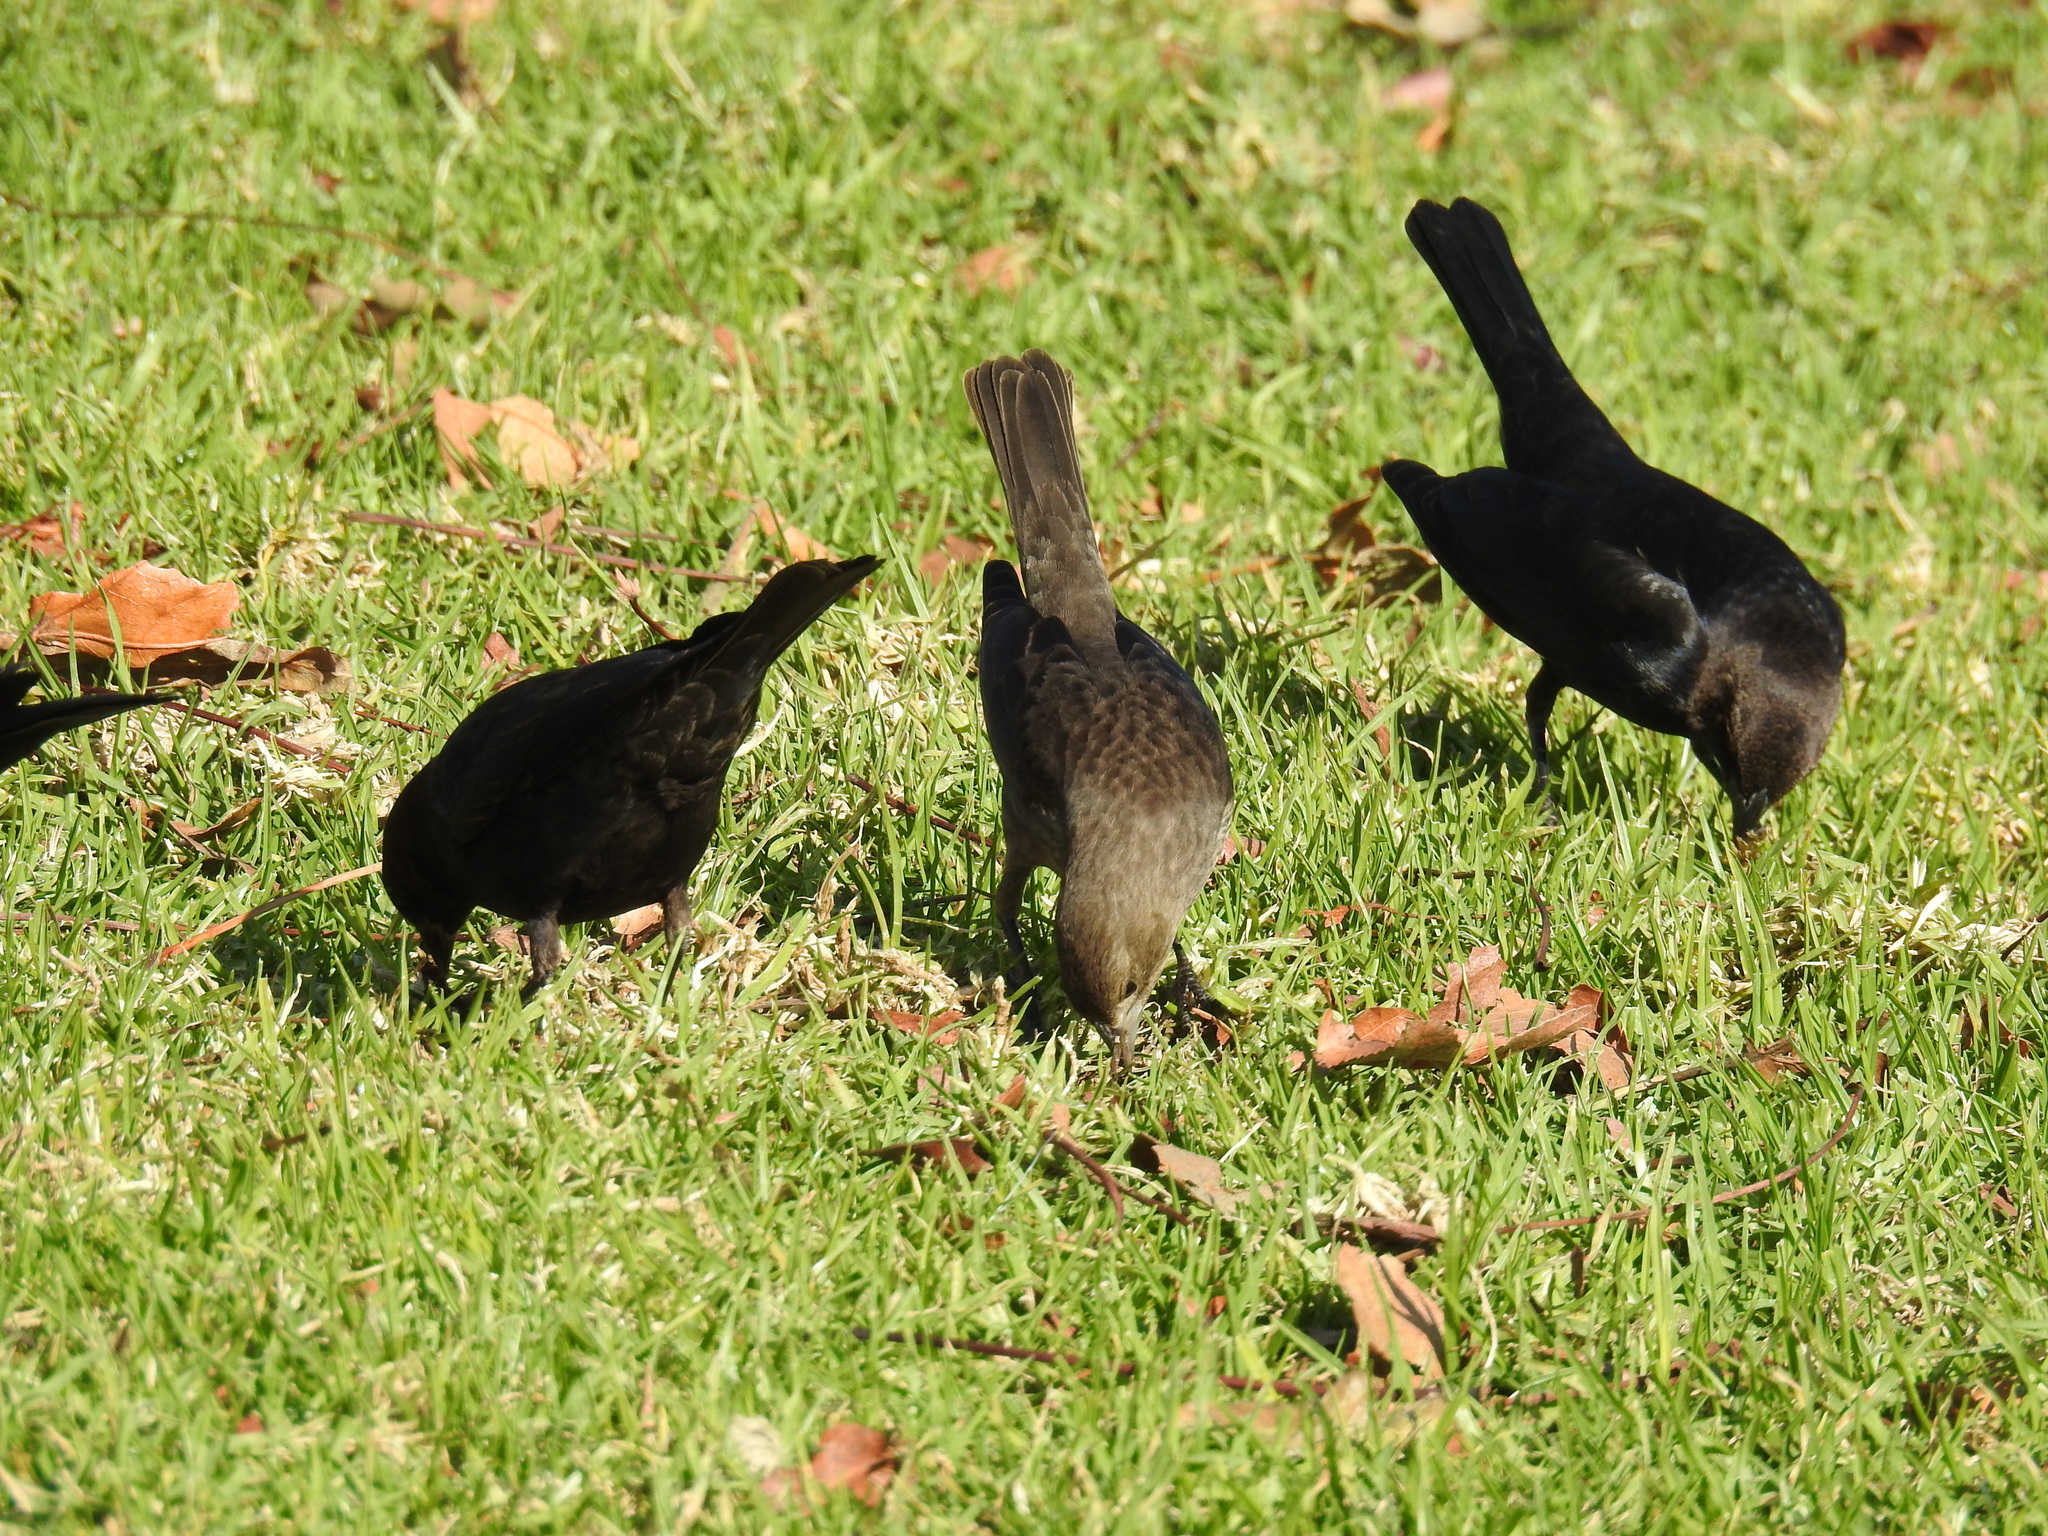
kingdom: Animalia
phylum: Chordata
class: Aves
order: Passeriformes
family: Icteridae
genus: Molothrus
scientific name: Molothrus ater
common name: Brown-headed cowbird
